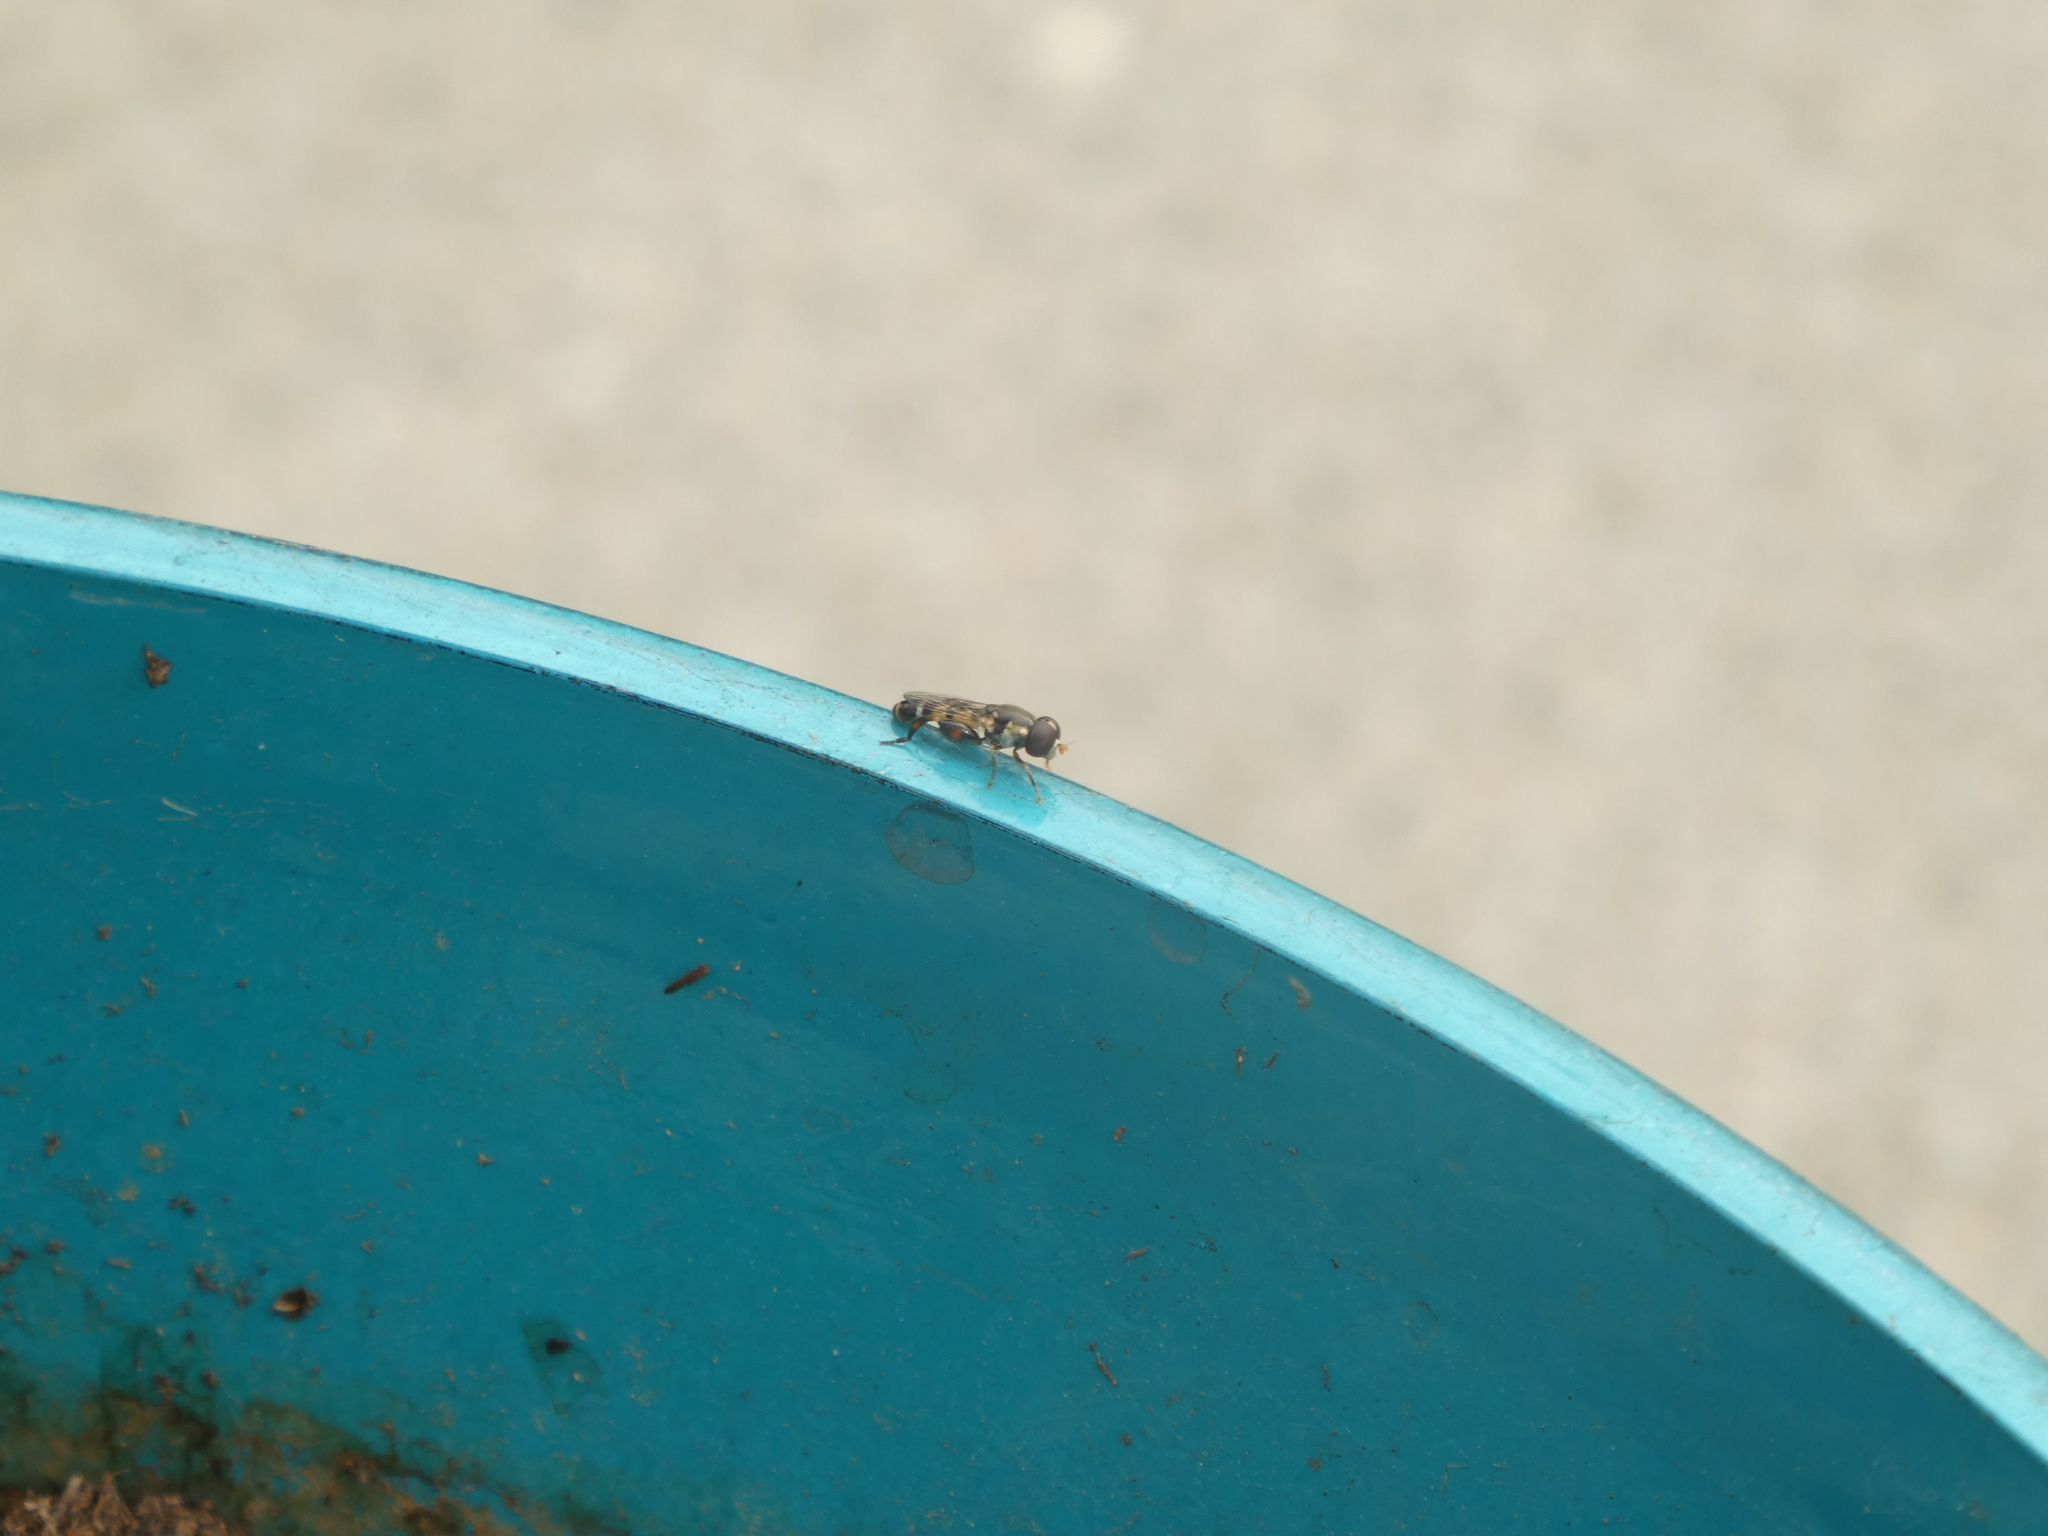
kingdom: Animalia
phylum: Arthropoda
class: Insecta
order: Diptera
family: Syrphidae
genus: Syritta
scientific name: Syritta pipiens
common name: Hover fly
